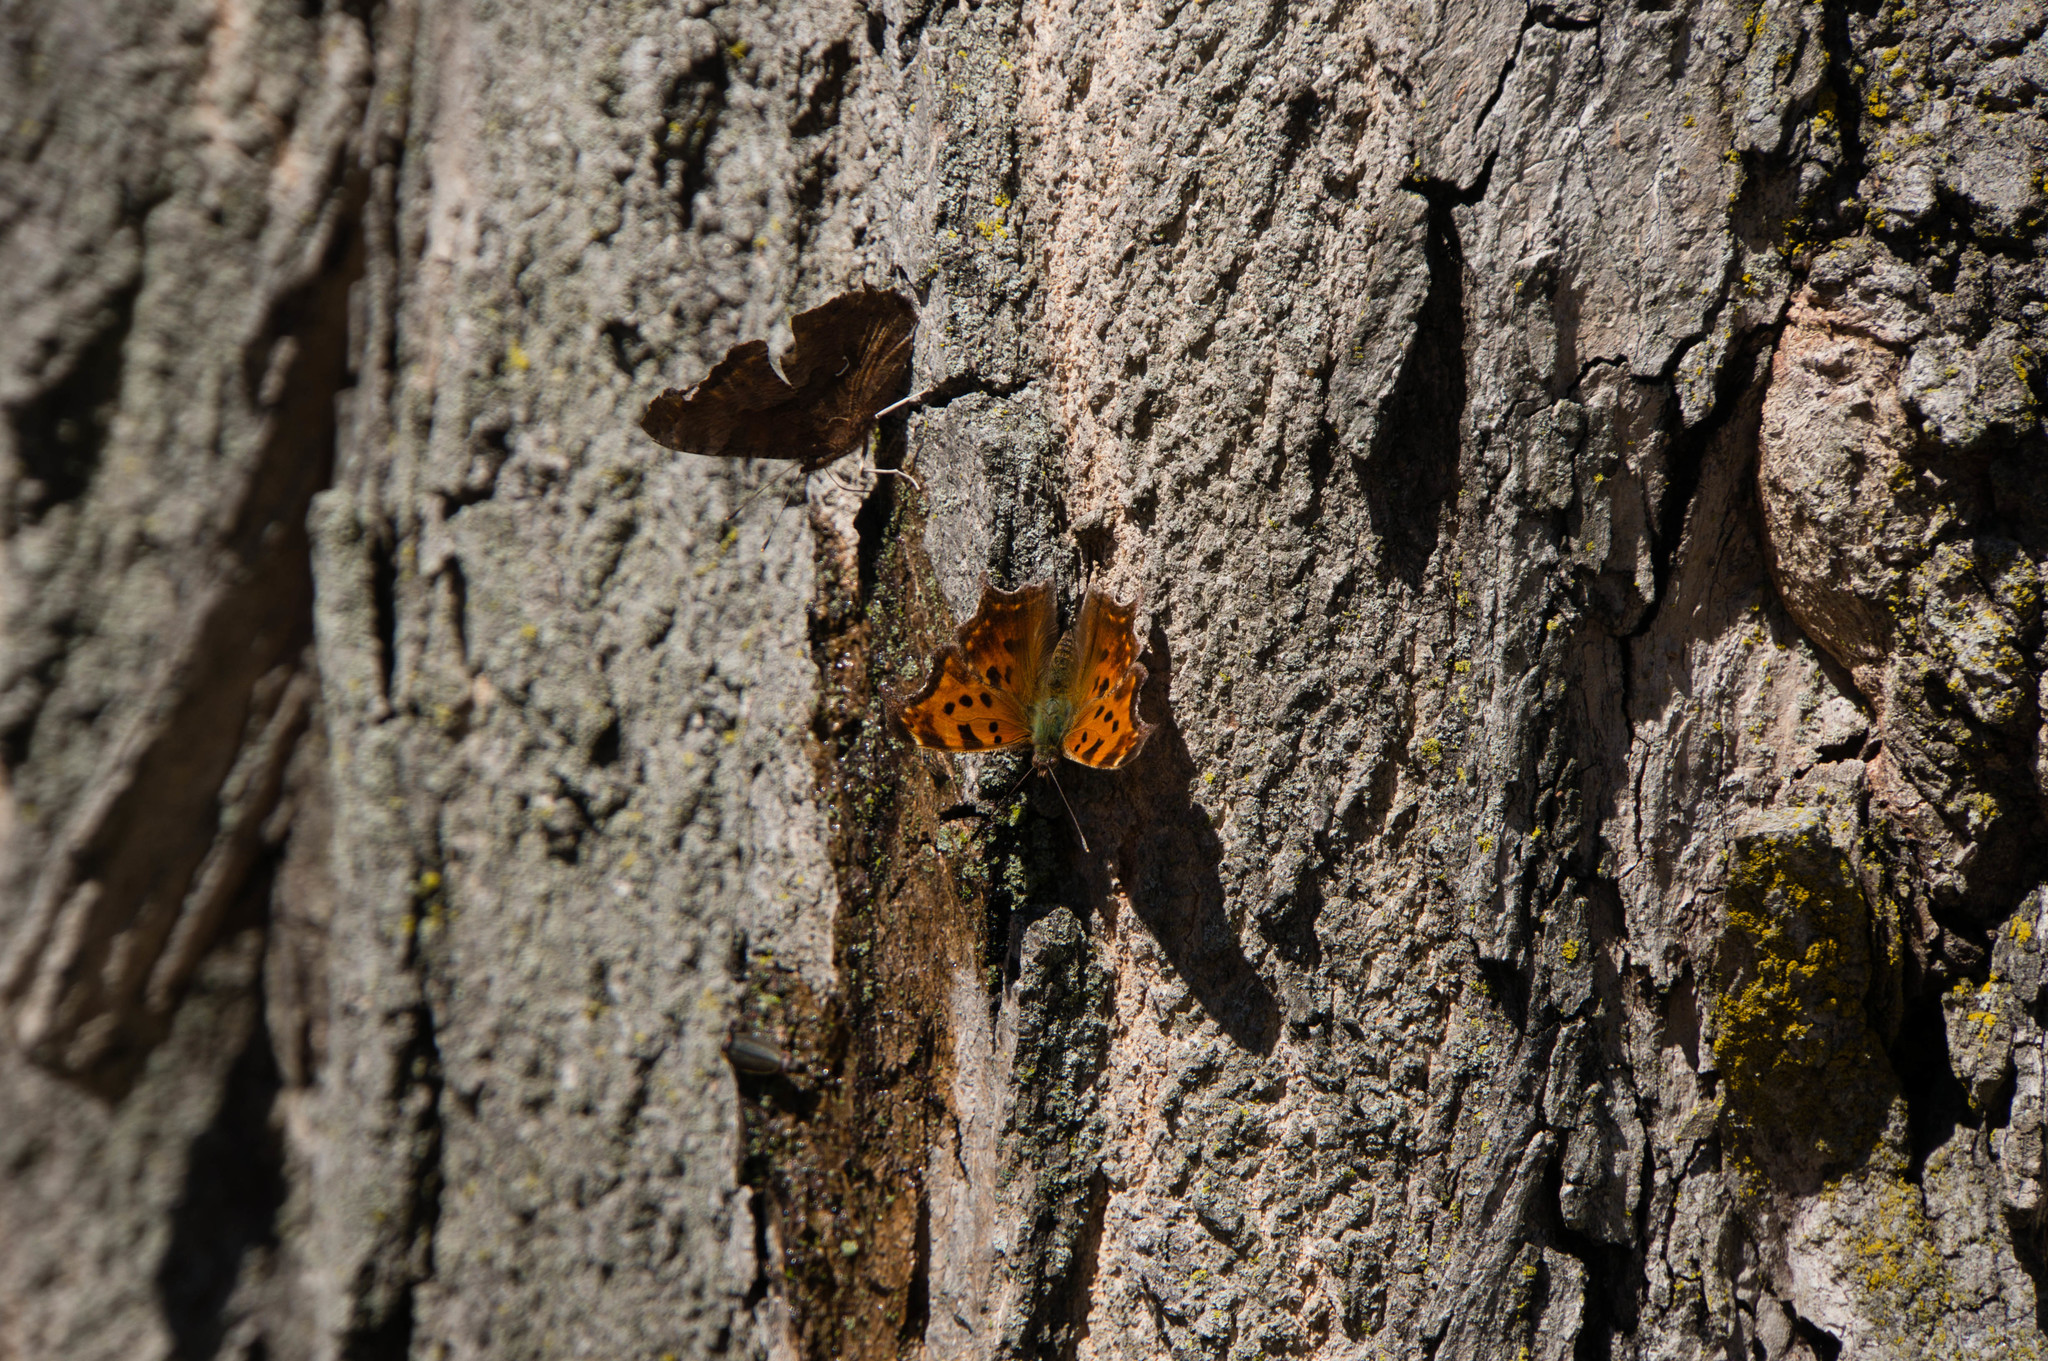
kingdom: Animalia
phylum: Arthropoda
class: Insecta
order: Lepidoptera
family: Nymphalidae
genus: Polygonia
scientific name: Polygonia comma
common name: Eastern comma
